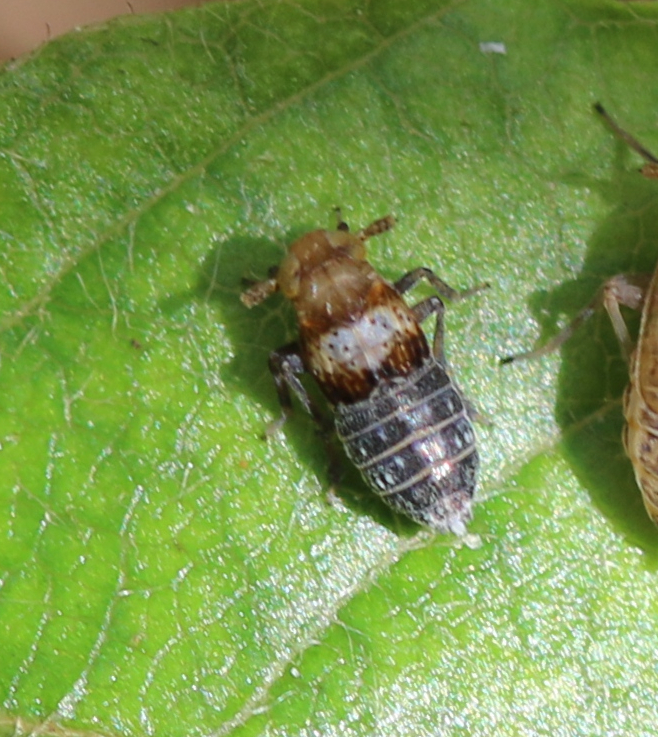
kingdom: Animalia
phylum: Arthropoda
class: Insecta
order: Hemiptera
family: Delphacidae
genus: Conomelus
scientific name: Conomelus anceps
